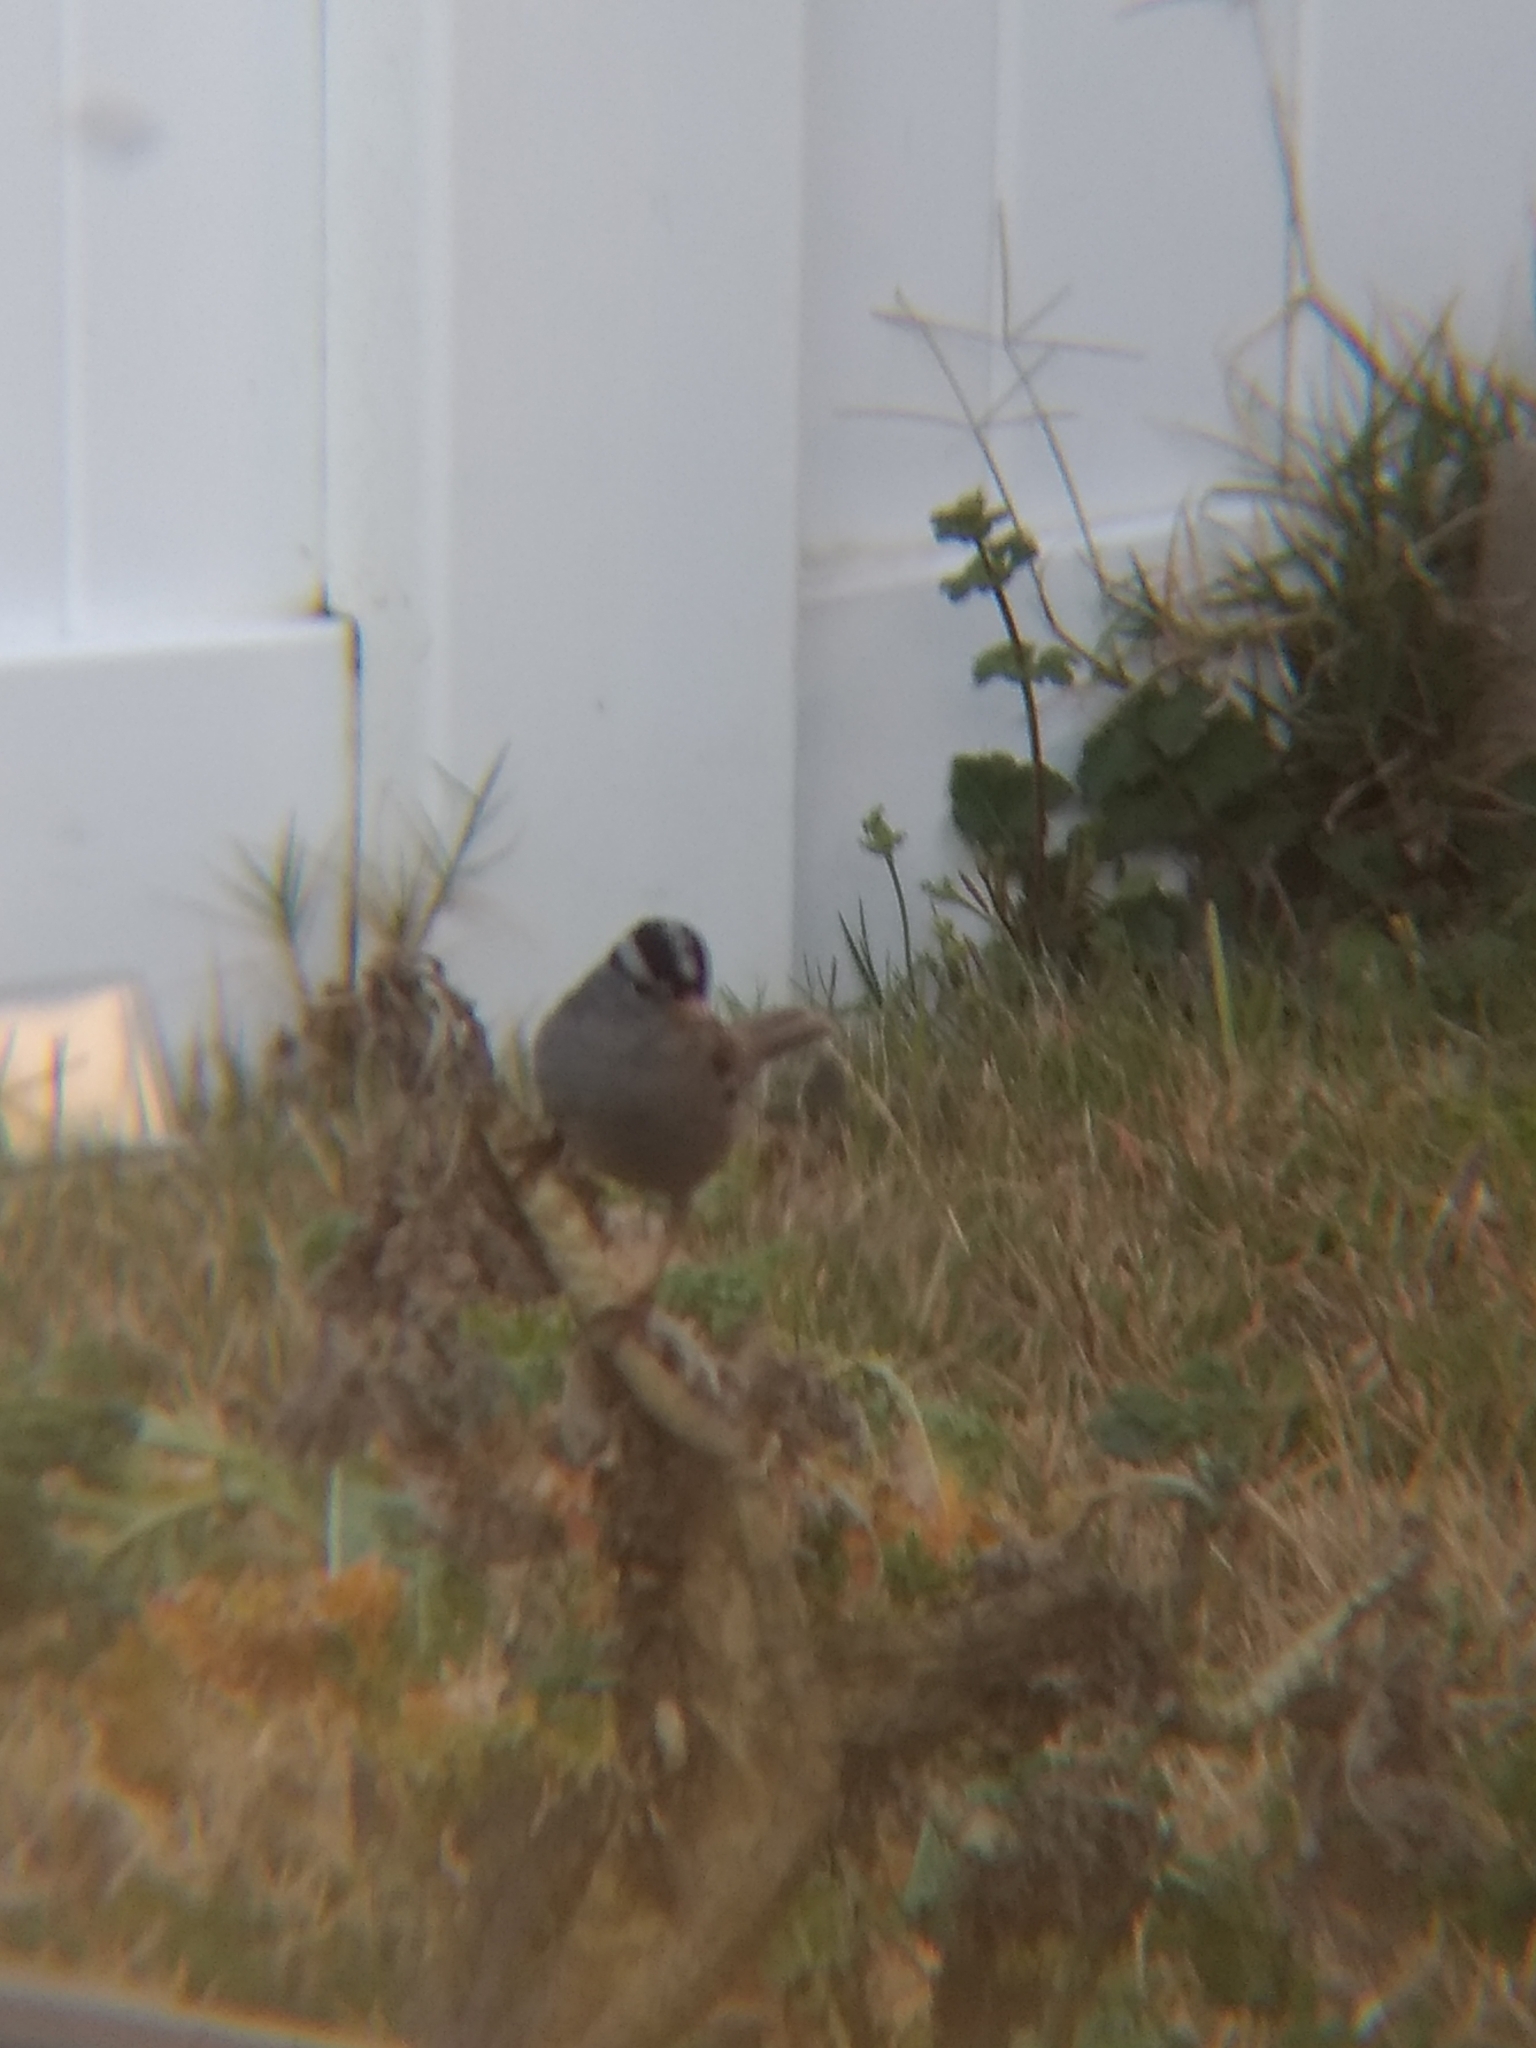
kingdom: Animalia
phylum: Chordata
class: Aves
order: Passeriformes
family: Passerellidae
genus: Zonotrichia
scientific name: Zonotrichia leucophrys
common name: White-crowned sparrow
